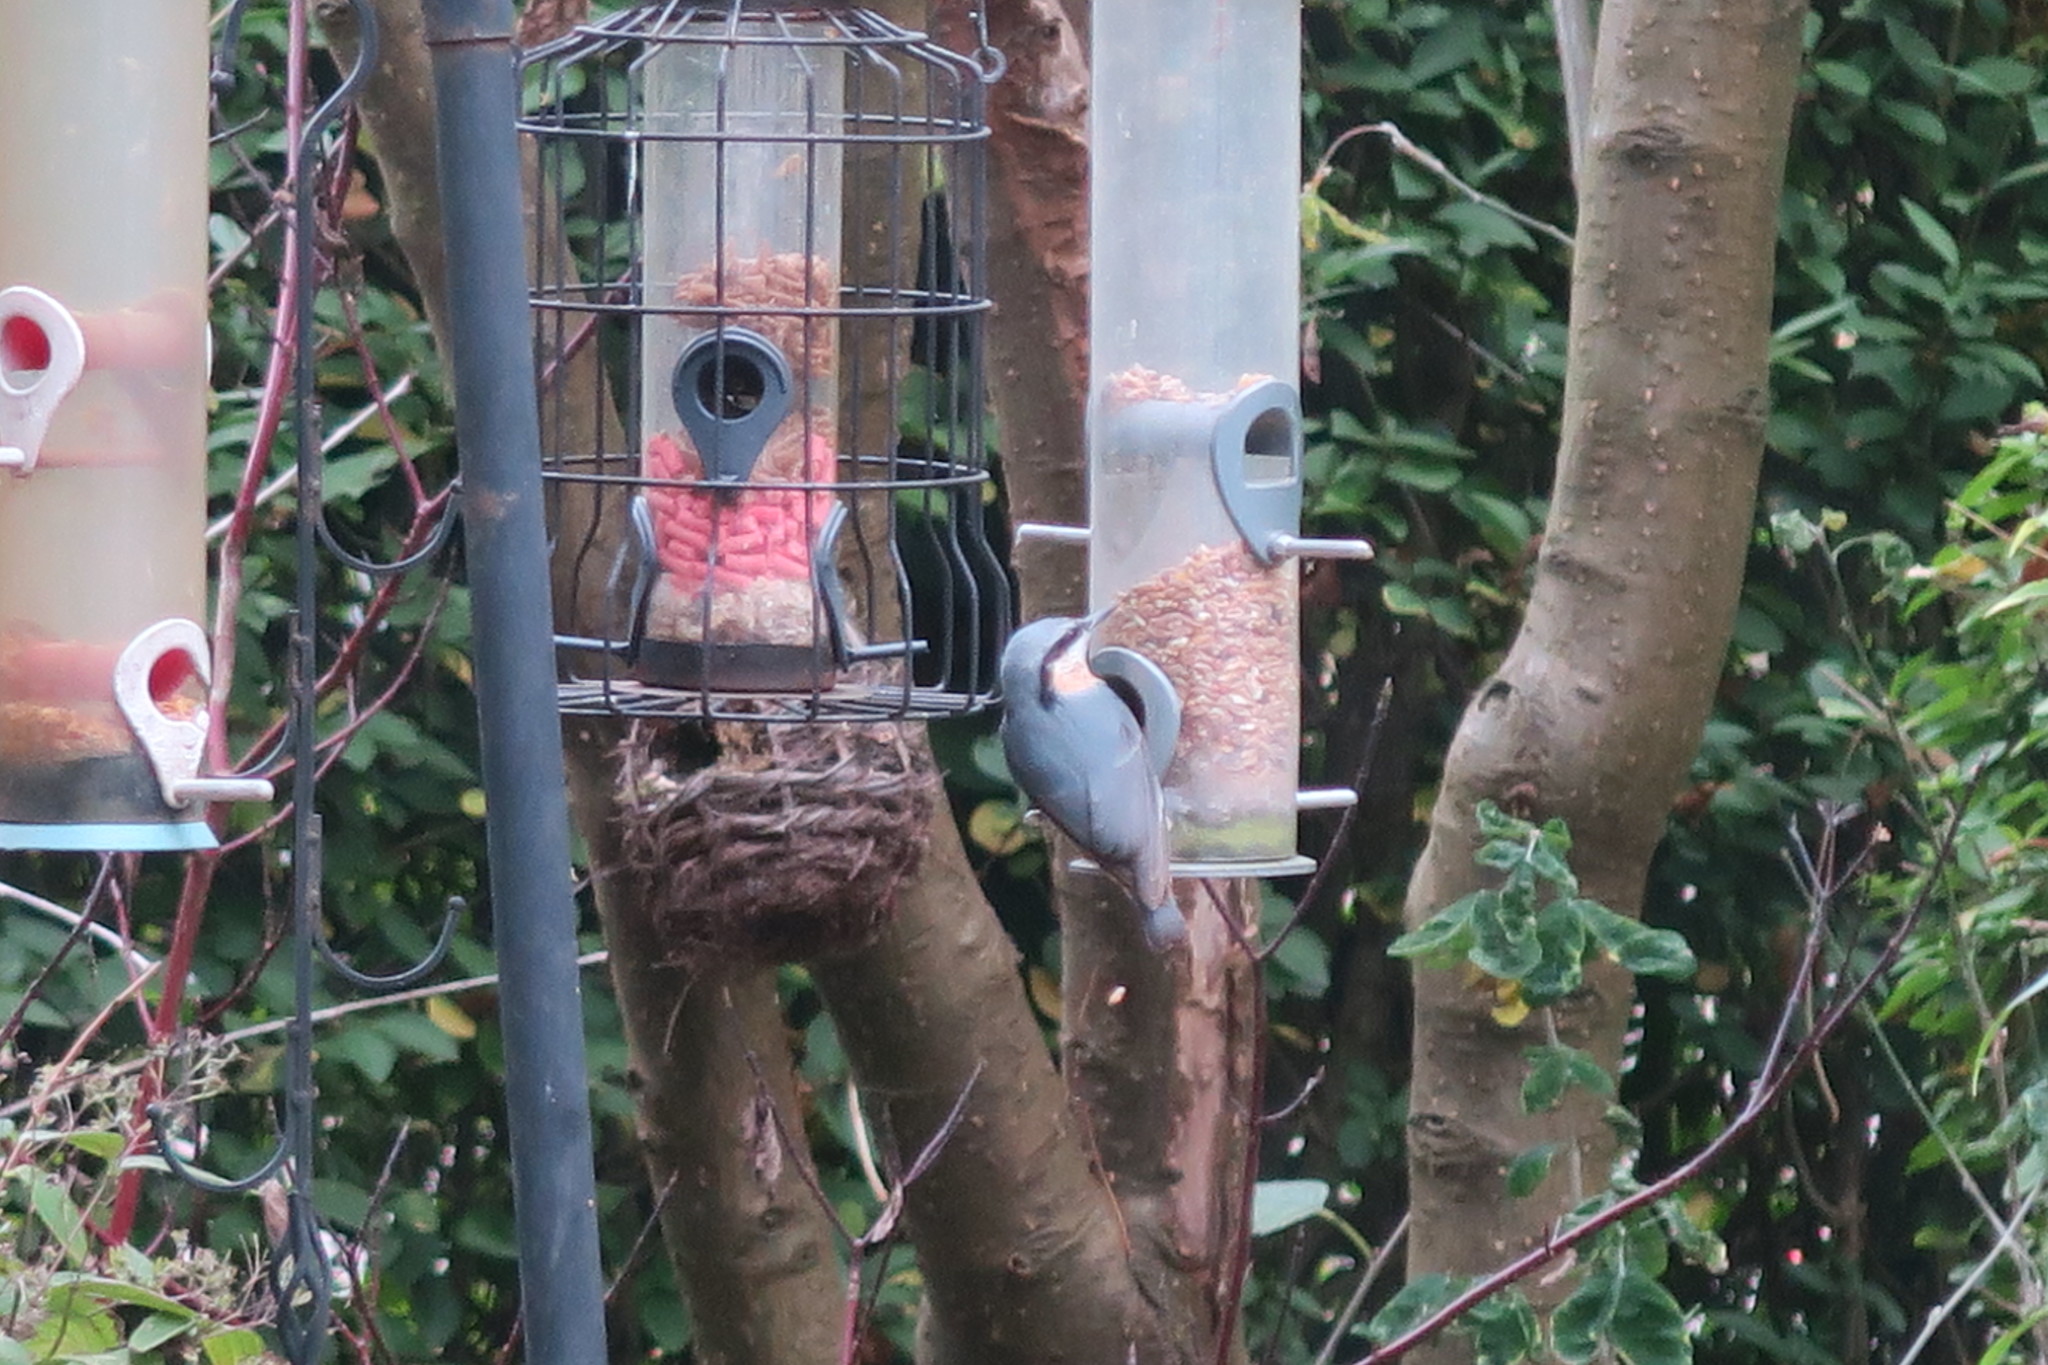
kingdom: Animalia
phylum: Chordata
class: Aves
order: Passeriformes
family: Sittidae
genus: Sitta
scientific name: Sitta europaea
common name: Eurasian nuthatch
